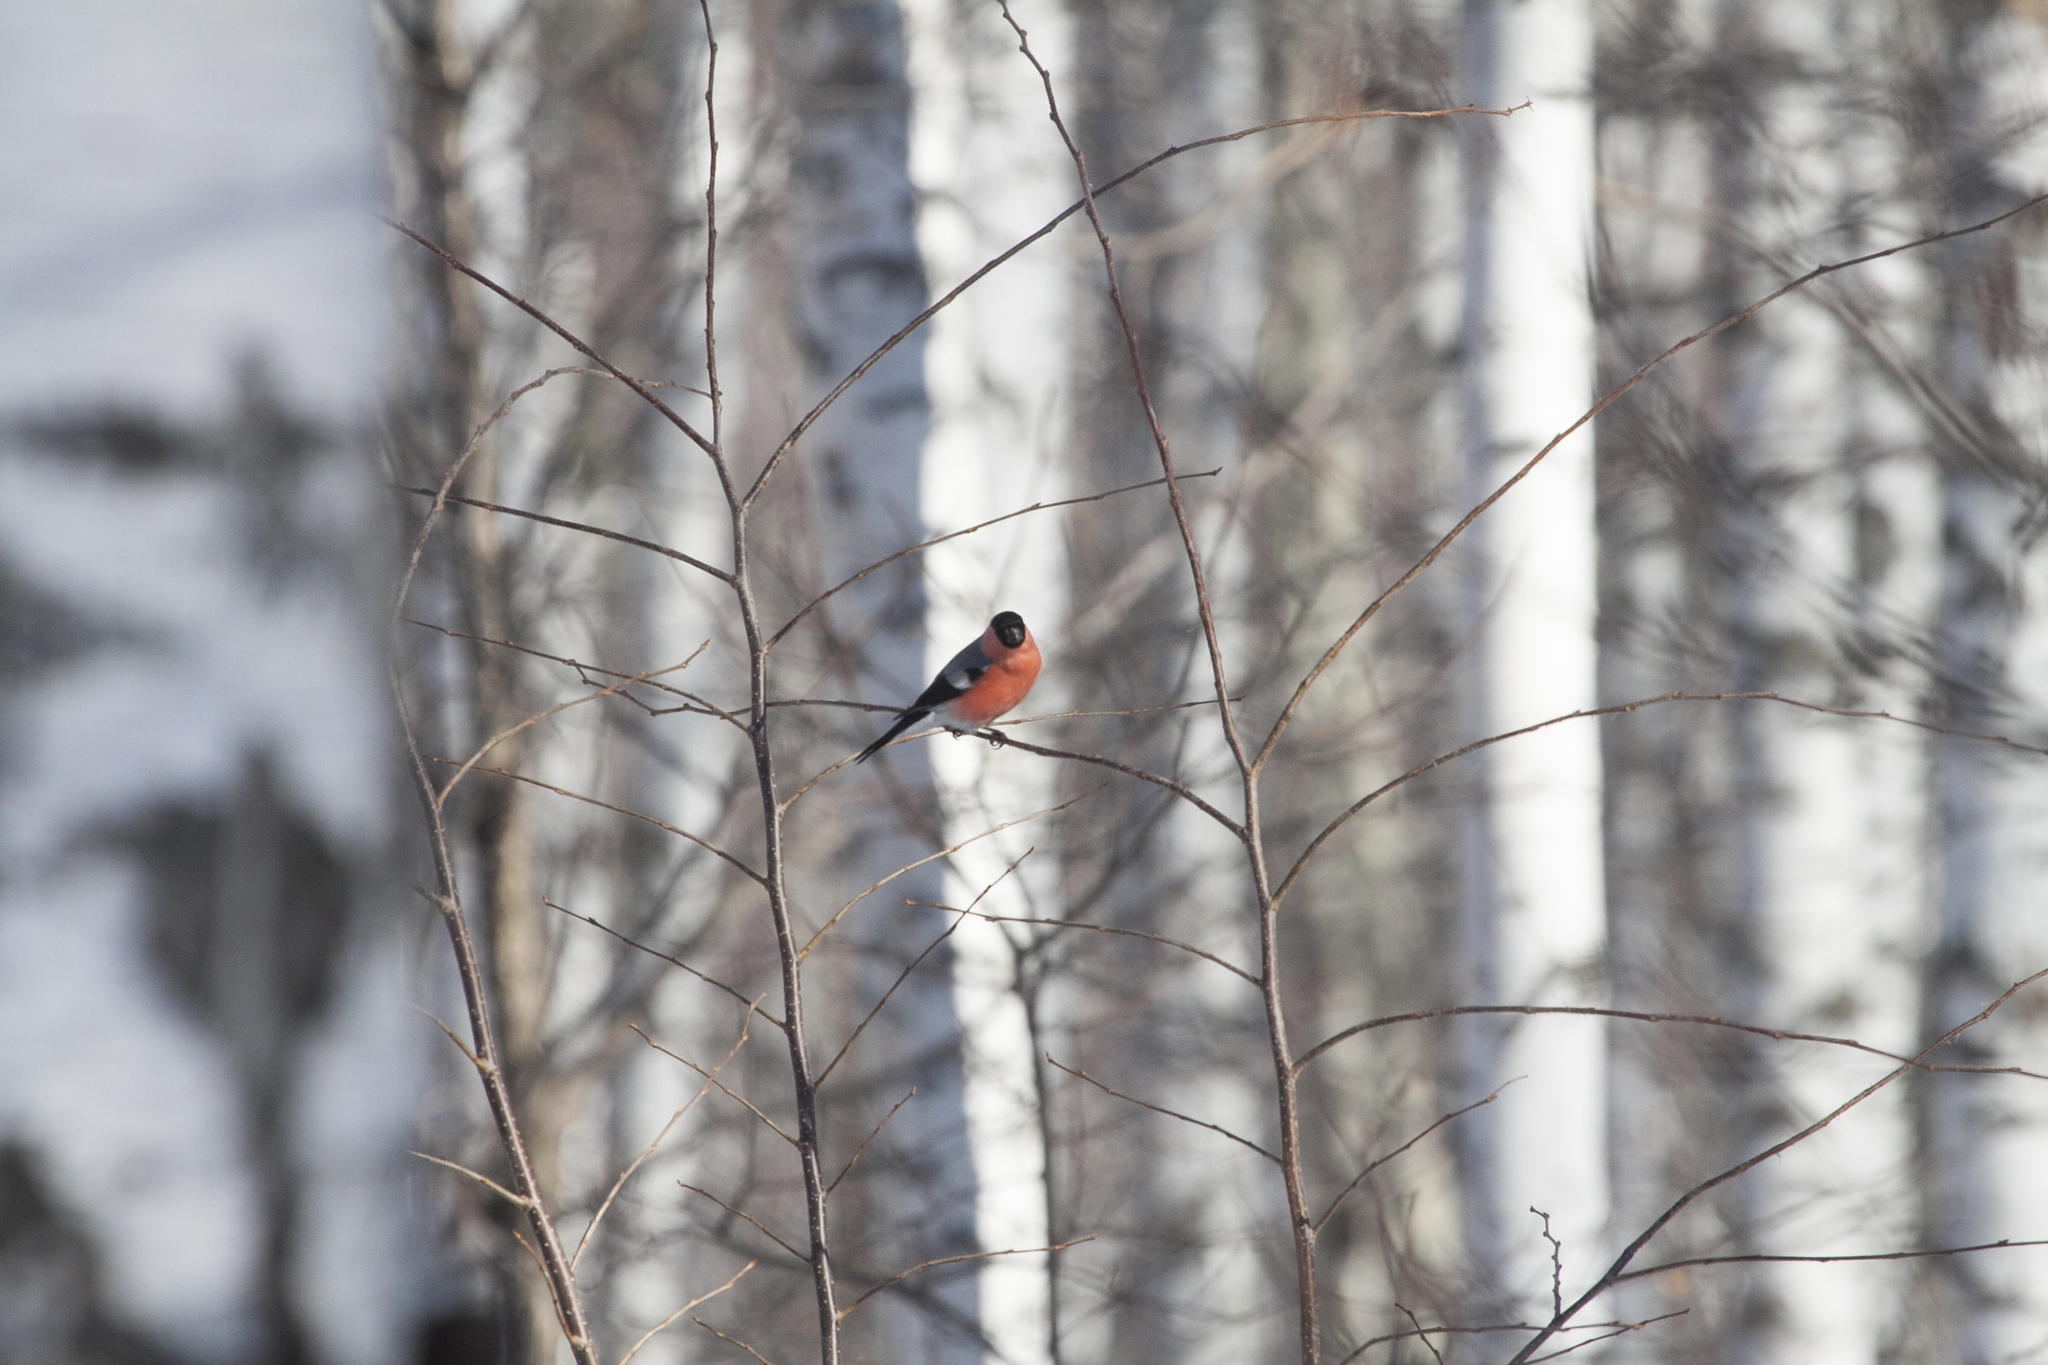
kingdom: Animalia
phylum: Chordata
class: Aves
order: Passeriformes
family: Fringillidae
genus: Pyrrhula
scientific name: Pyrrhula pyrrhula
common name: Eurasian bullfinch
